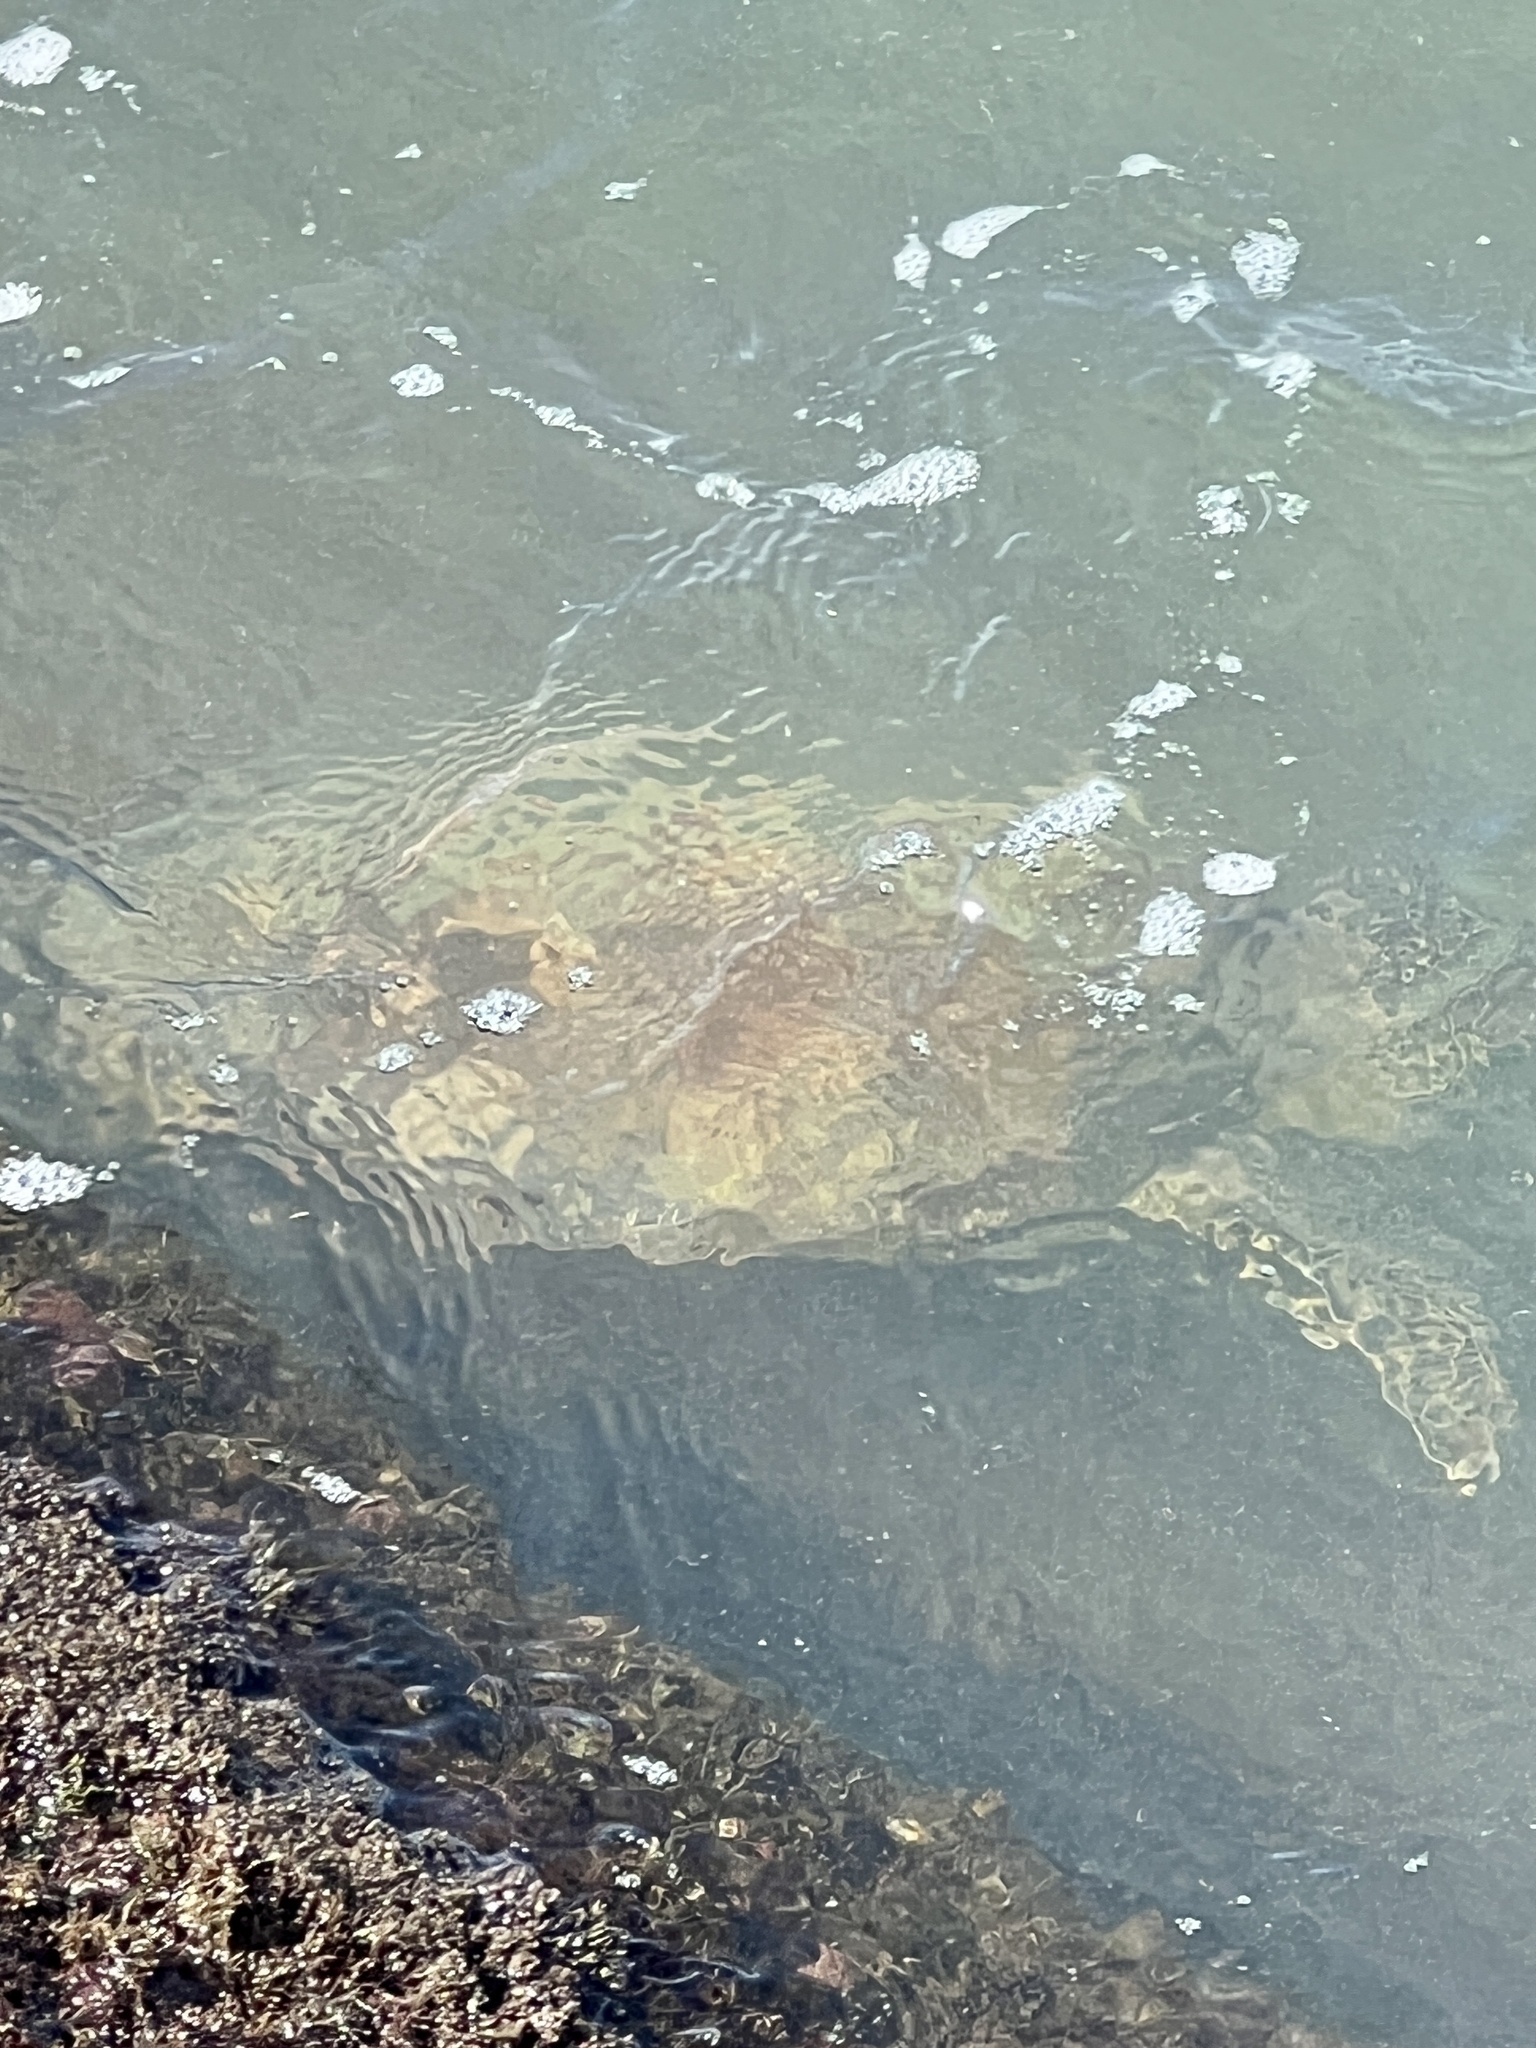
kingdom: Animalia
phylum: Chordata
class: Testudines
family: Cheloniidae
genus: Chelonia
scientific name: Chelonia mydas
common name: Green turtle
